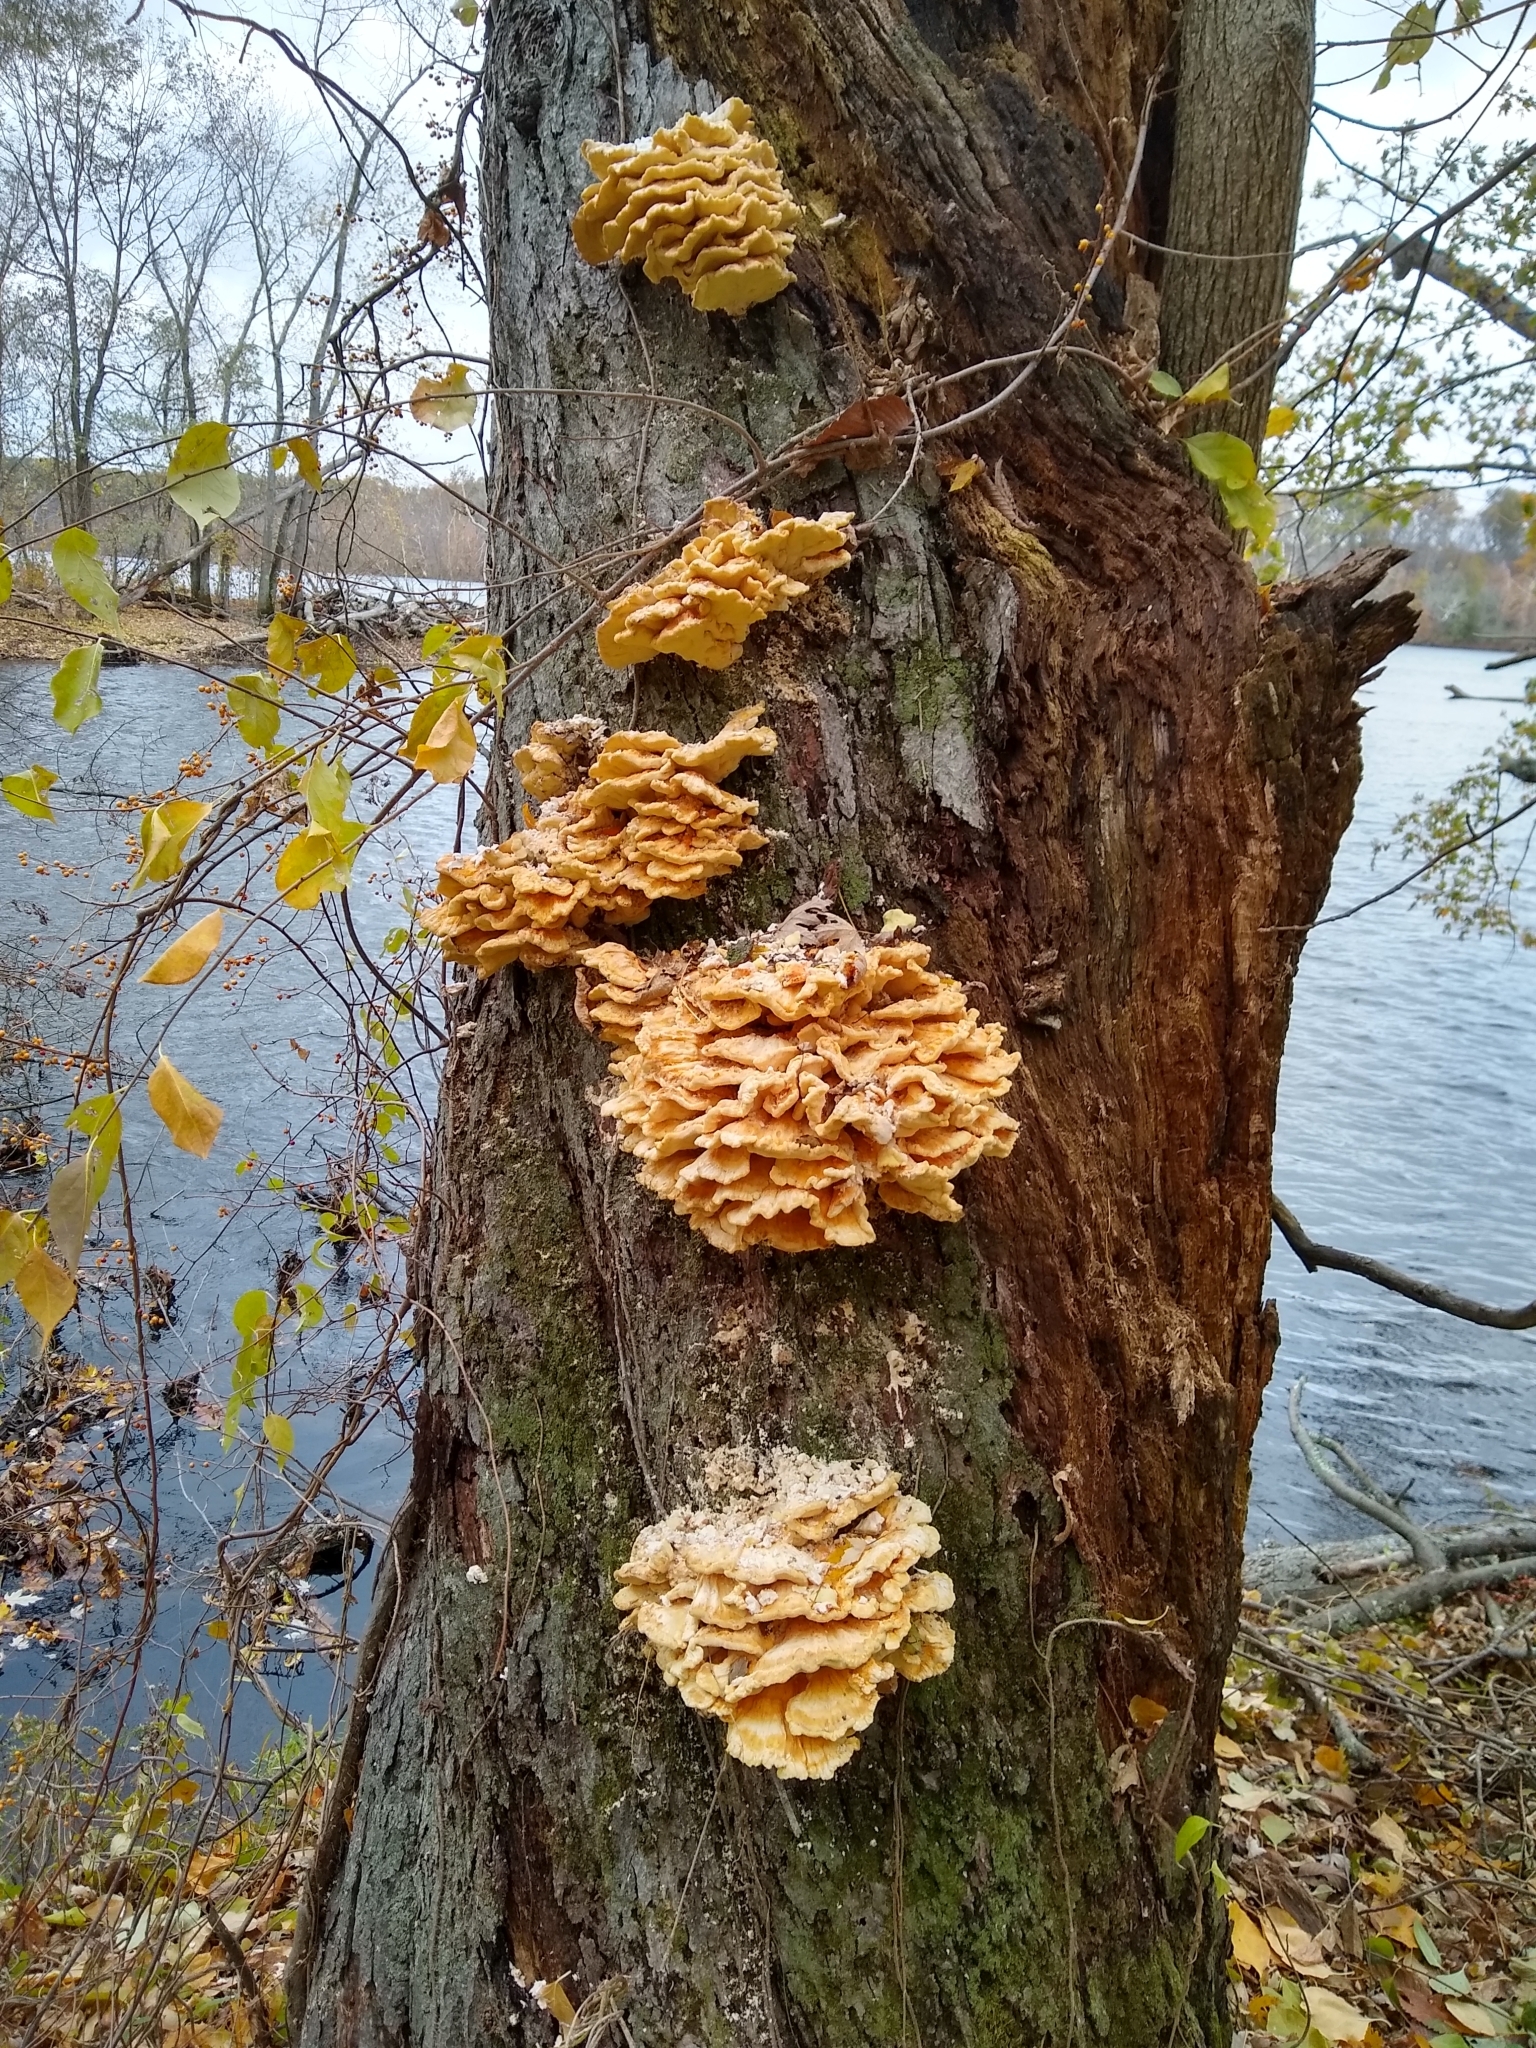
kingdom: Fungi
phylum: Basidiomycota
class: Agaricomycetes
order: Polyporales
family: Laetiporaceae
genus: Laetiporus
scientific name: Laetiporus sulphureus
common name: Chicken of the woods
